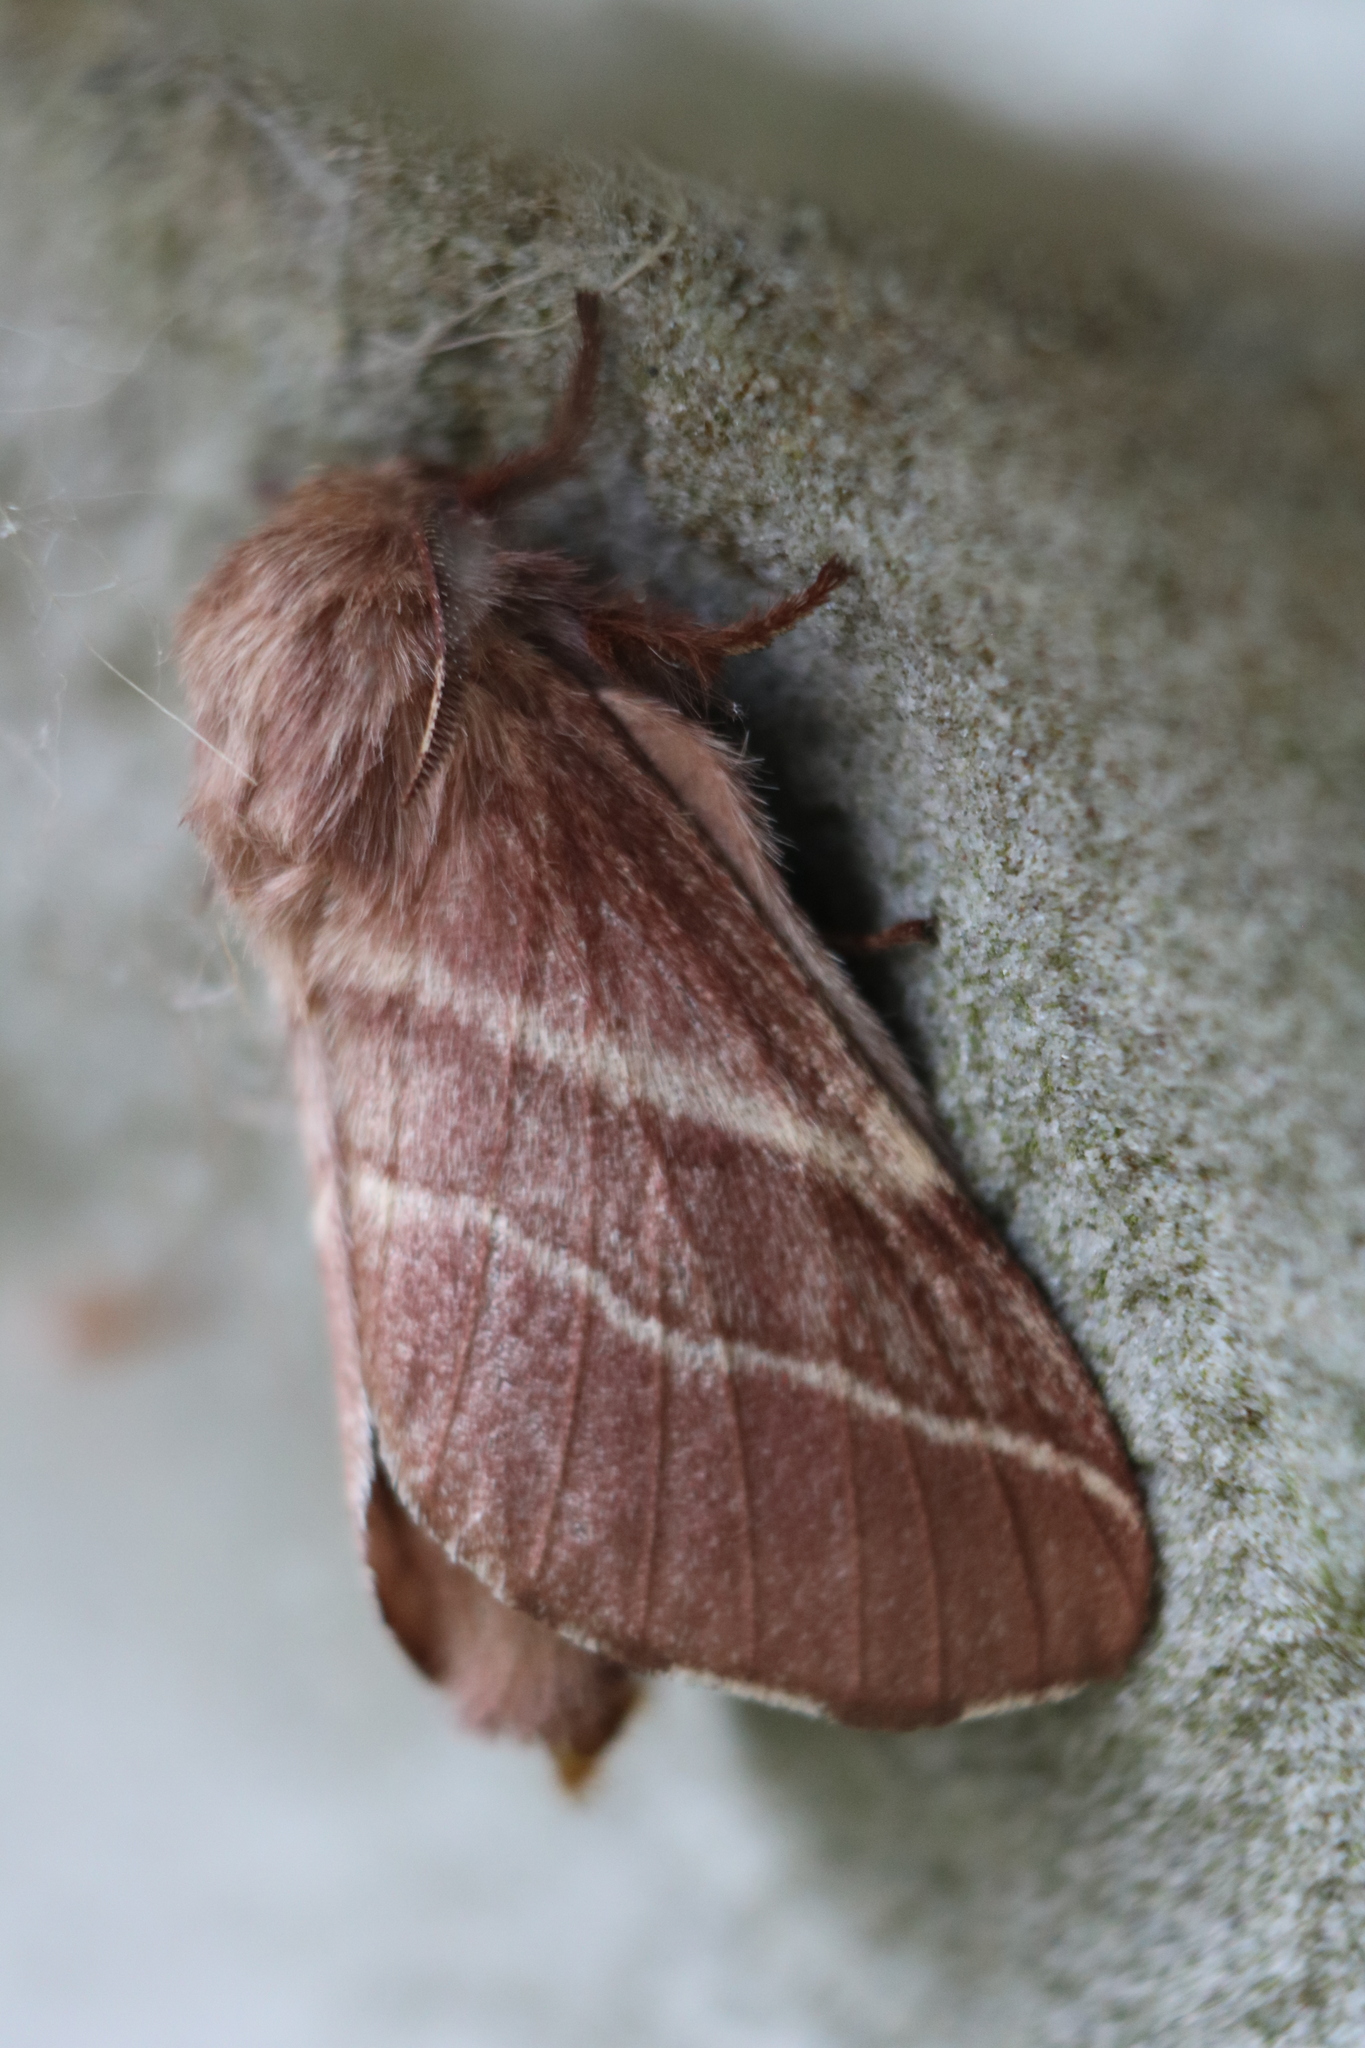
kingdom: Animalia
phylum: Arthropoda
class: Insecta
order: Lepidoptera
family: Lasiocampidae
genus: Malacosoma
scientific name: Malacosoma americana
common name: Eastern tent caterpillar moth
